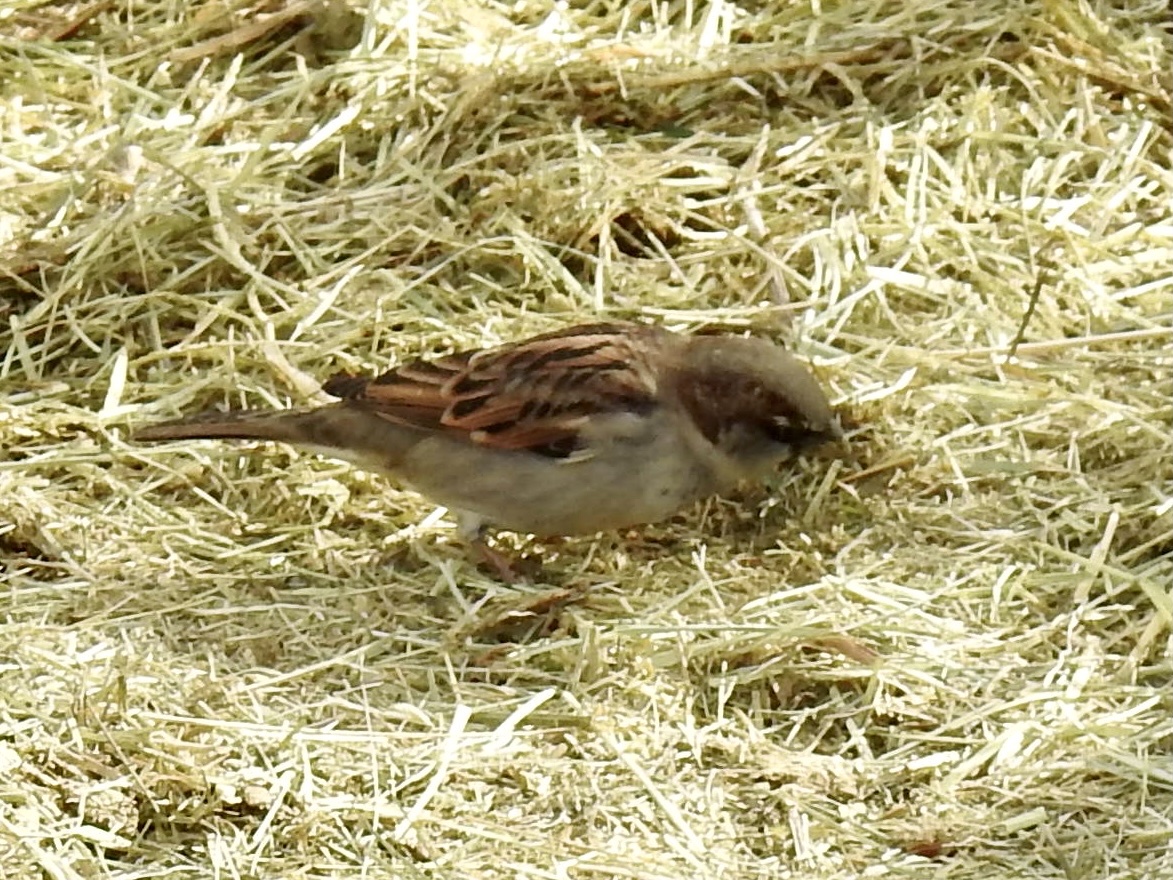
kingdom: Animalia
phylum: Chordata
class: Aves
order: Passeriformes
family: Passeridae
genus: Passer
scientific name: Passer domesticus
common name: House sparrow
